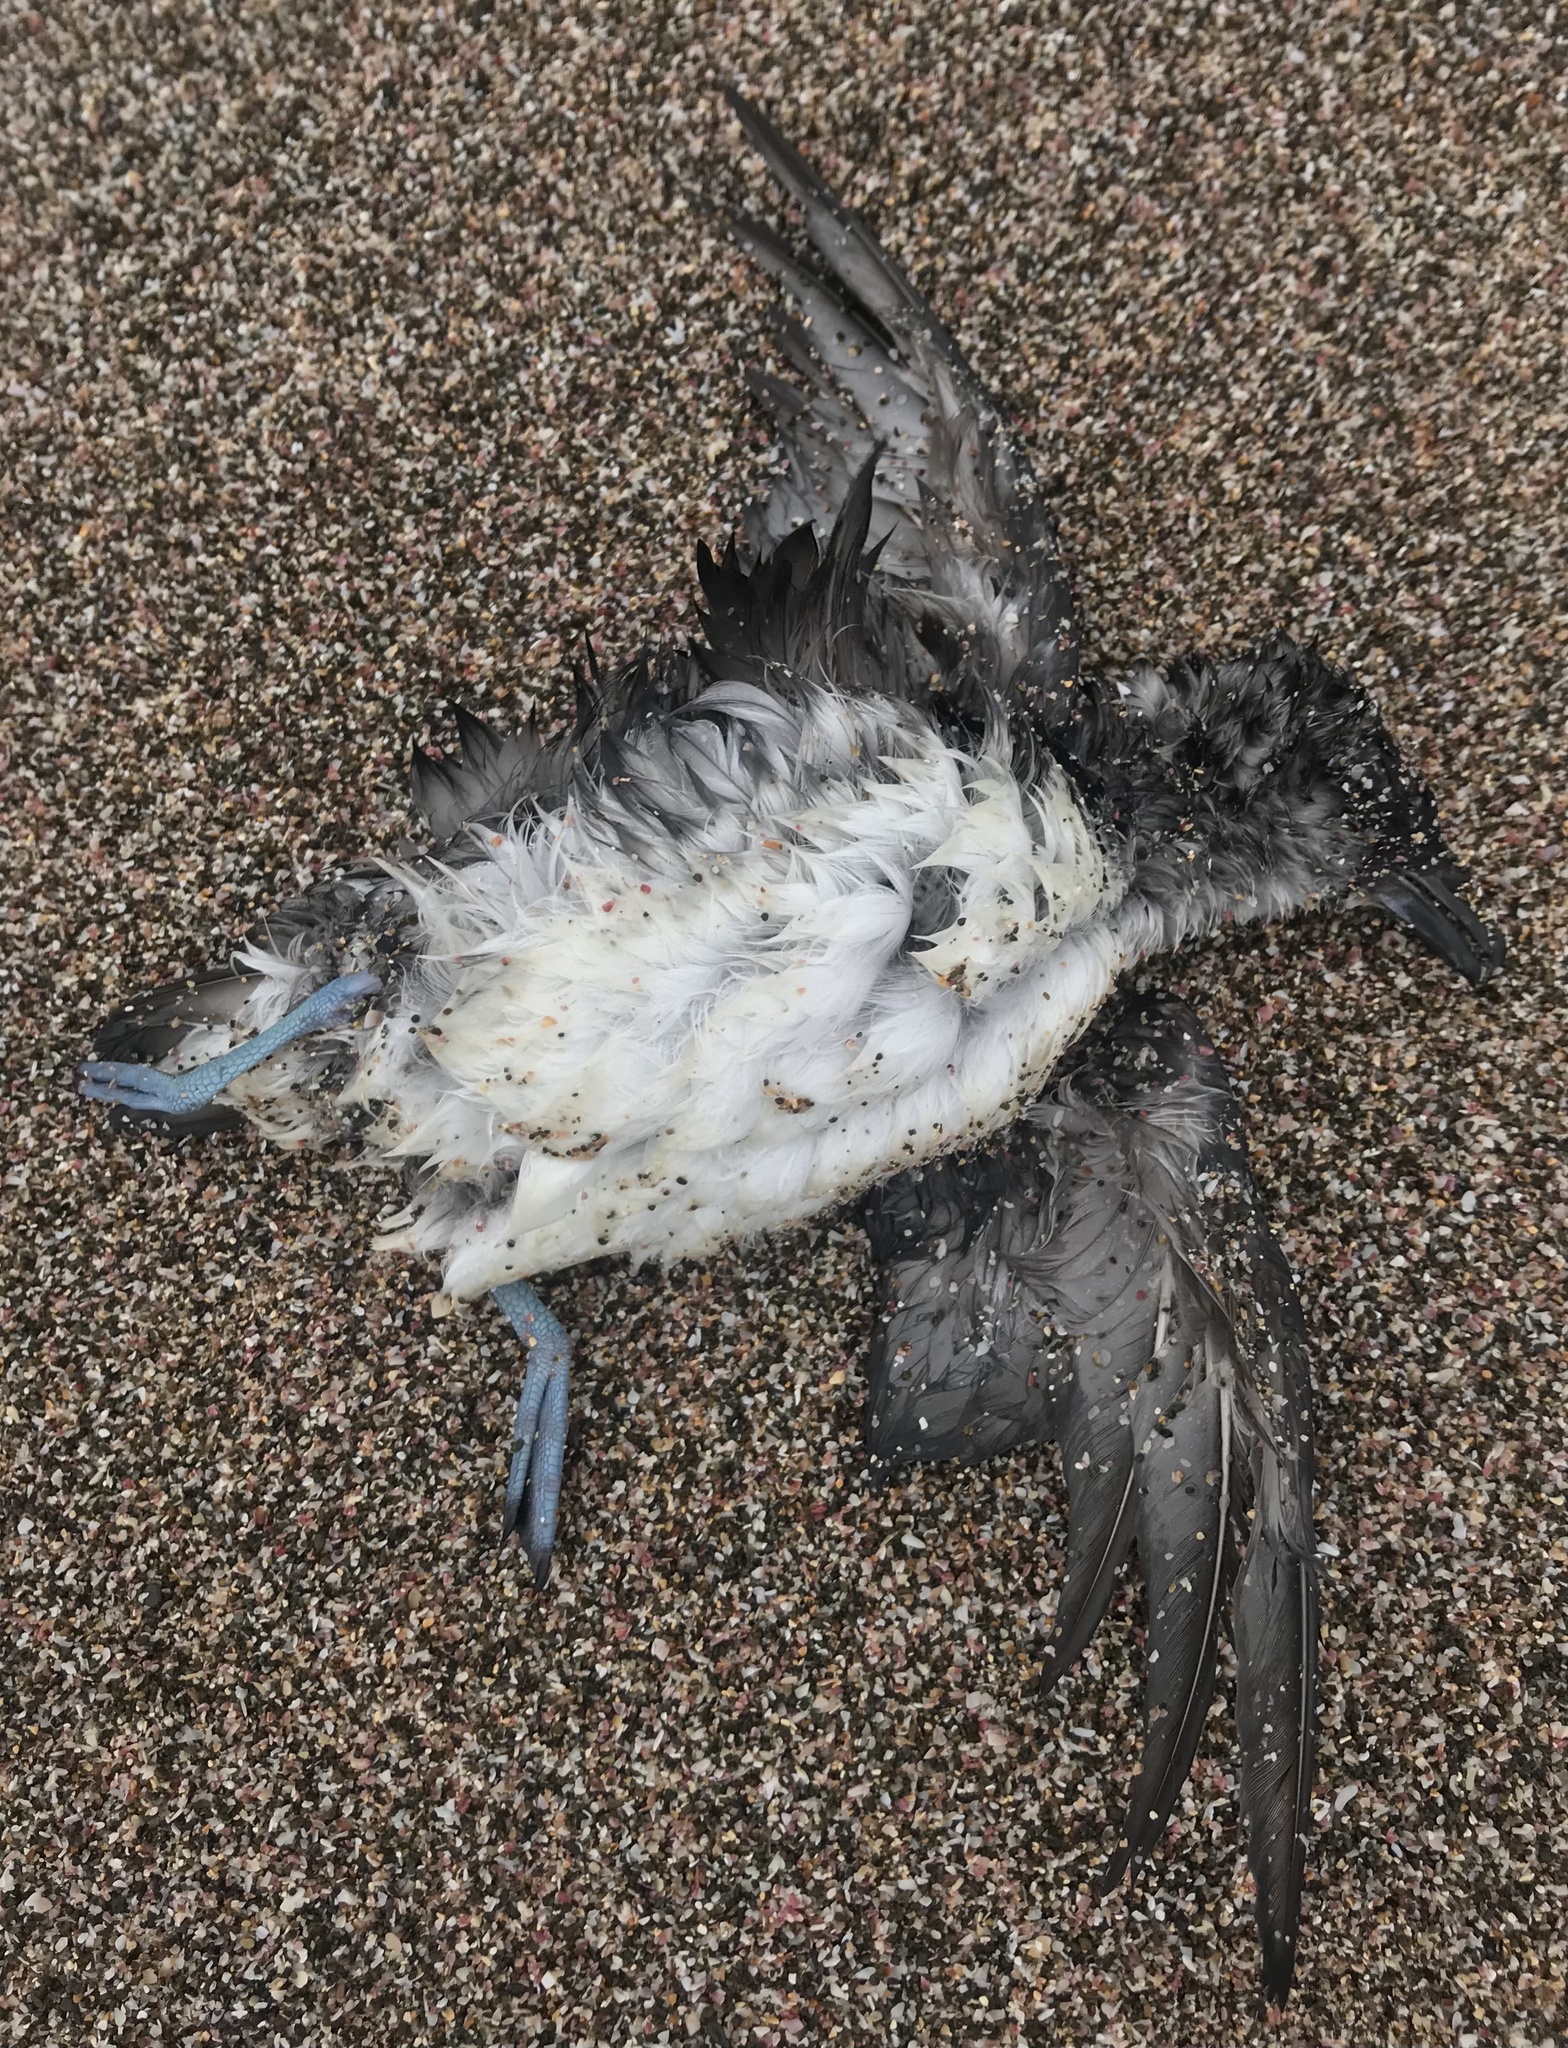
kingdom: Animalia
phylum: Chordata
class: Aves
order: Procellariiformes
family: Pelecanoididae
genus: Pelecanoides
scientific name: Pelecanoides urinatrix
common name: Common diving-petrel
